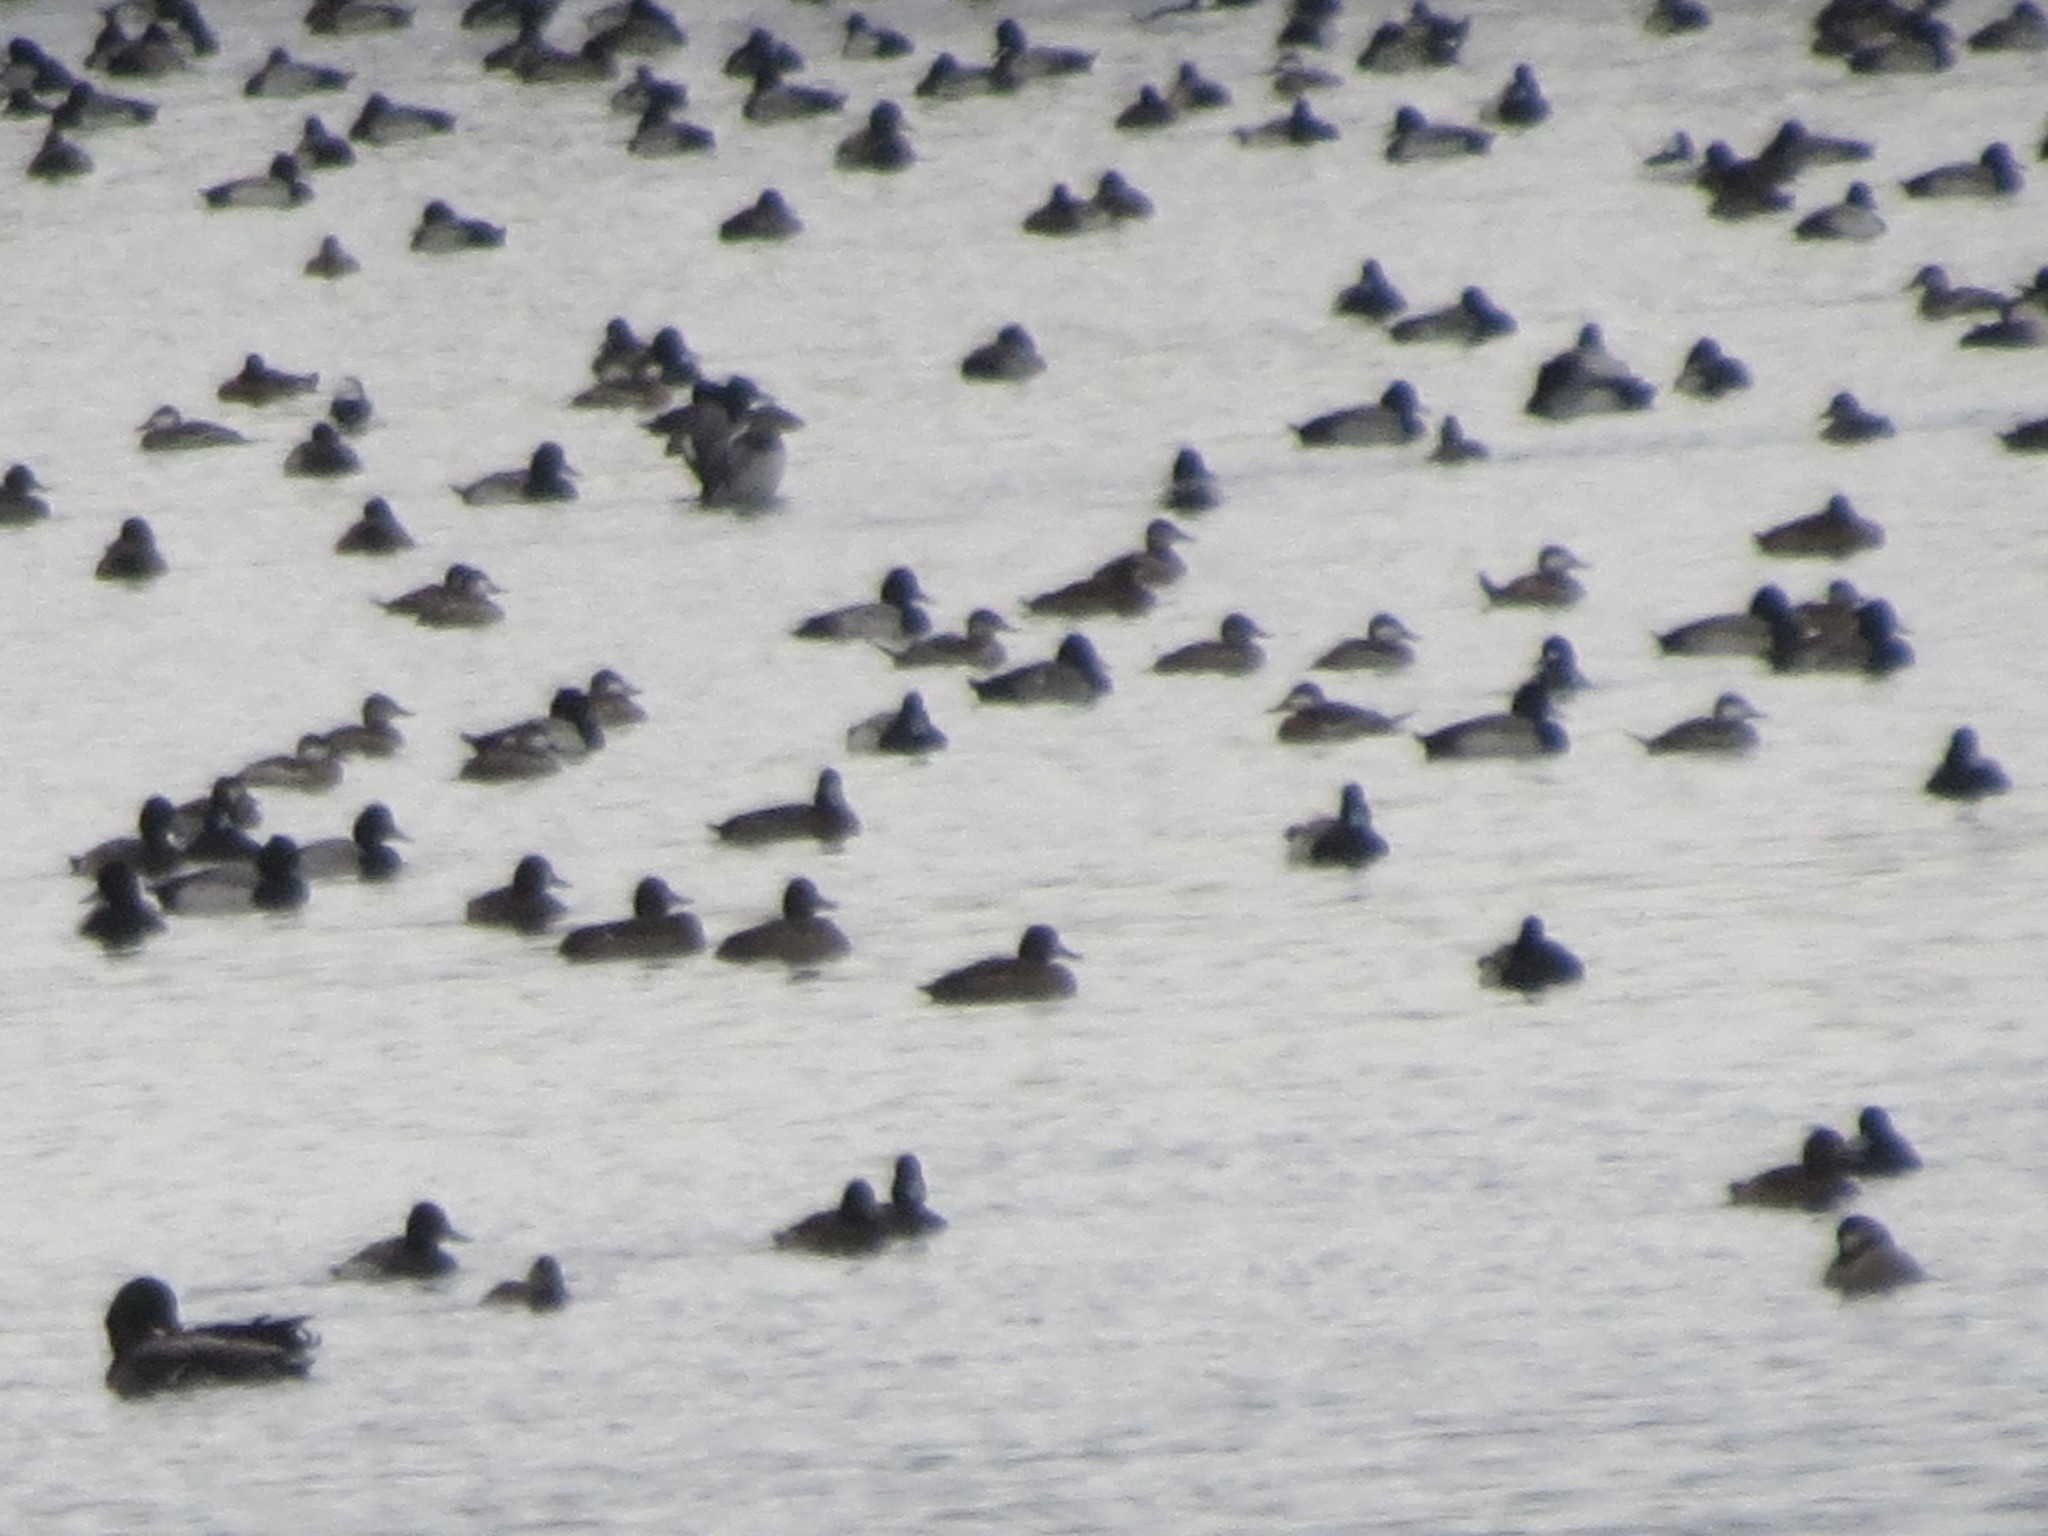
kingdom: Animalia
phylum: Chordata
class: Aves
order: Anseriformes
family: Anatidae
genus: Aythya
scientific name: Aythya affinis
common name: Lesser scaup
